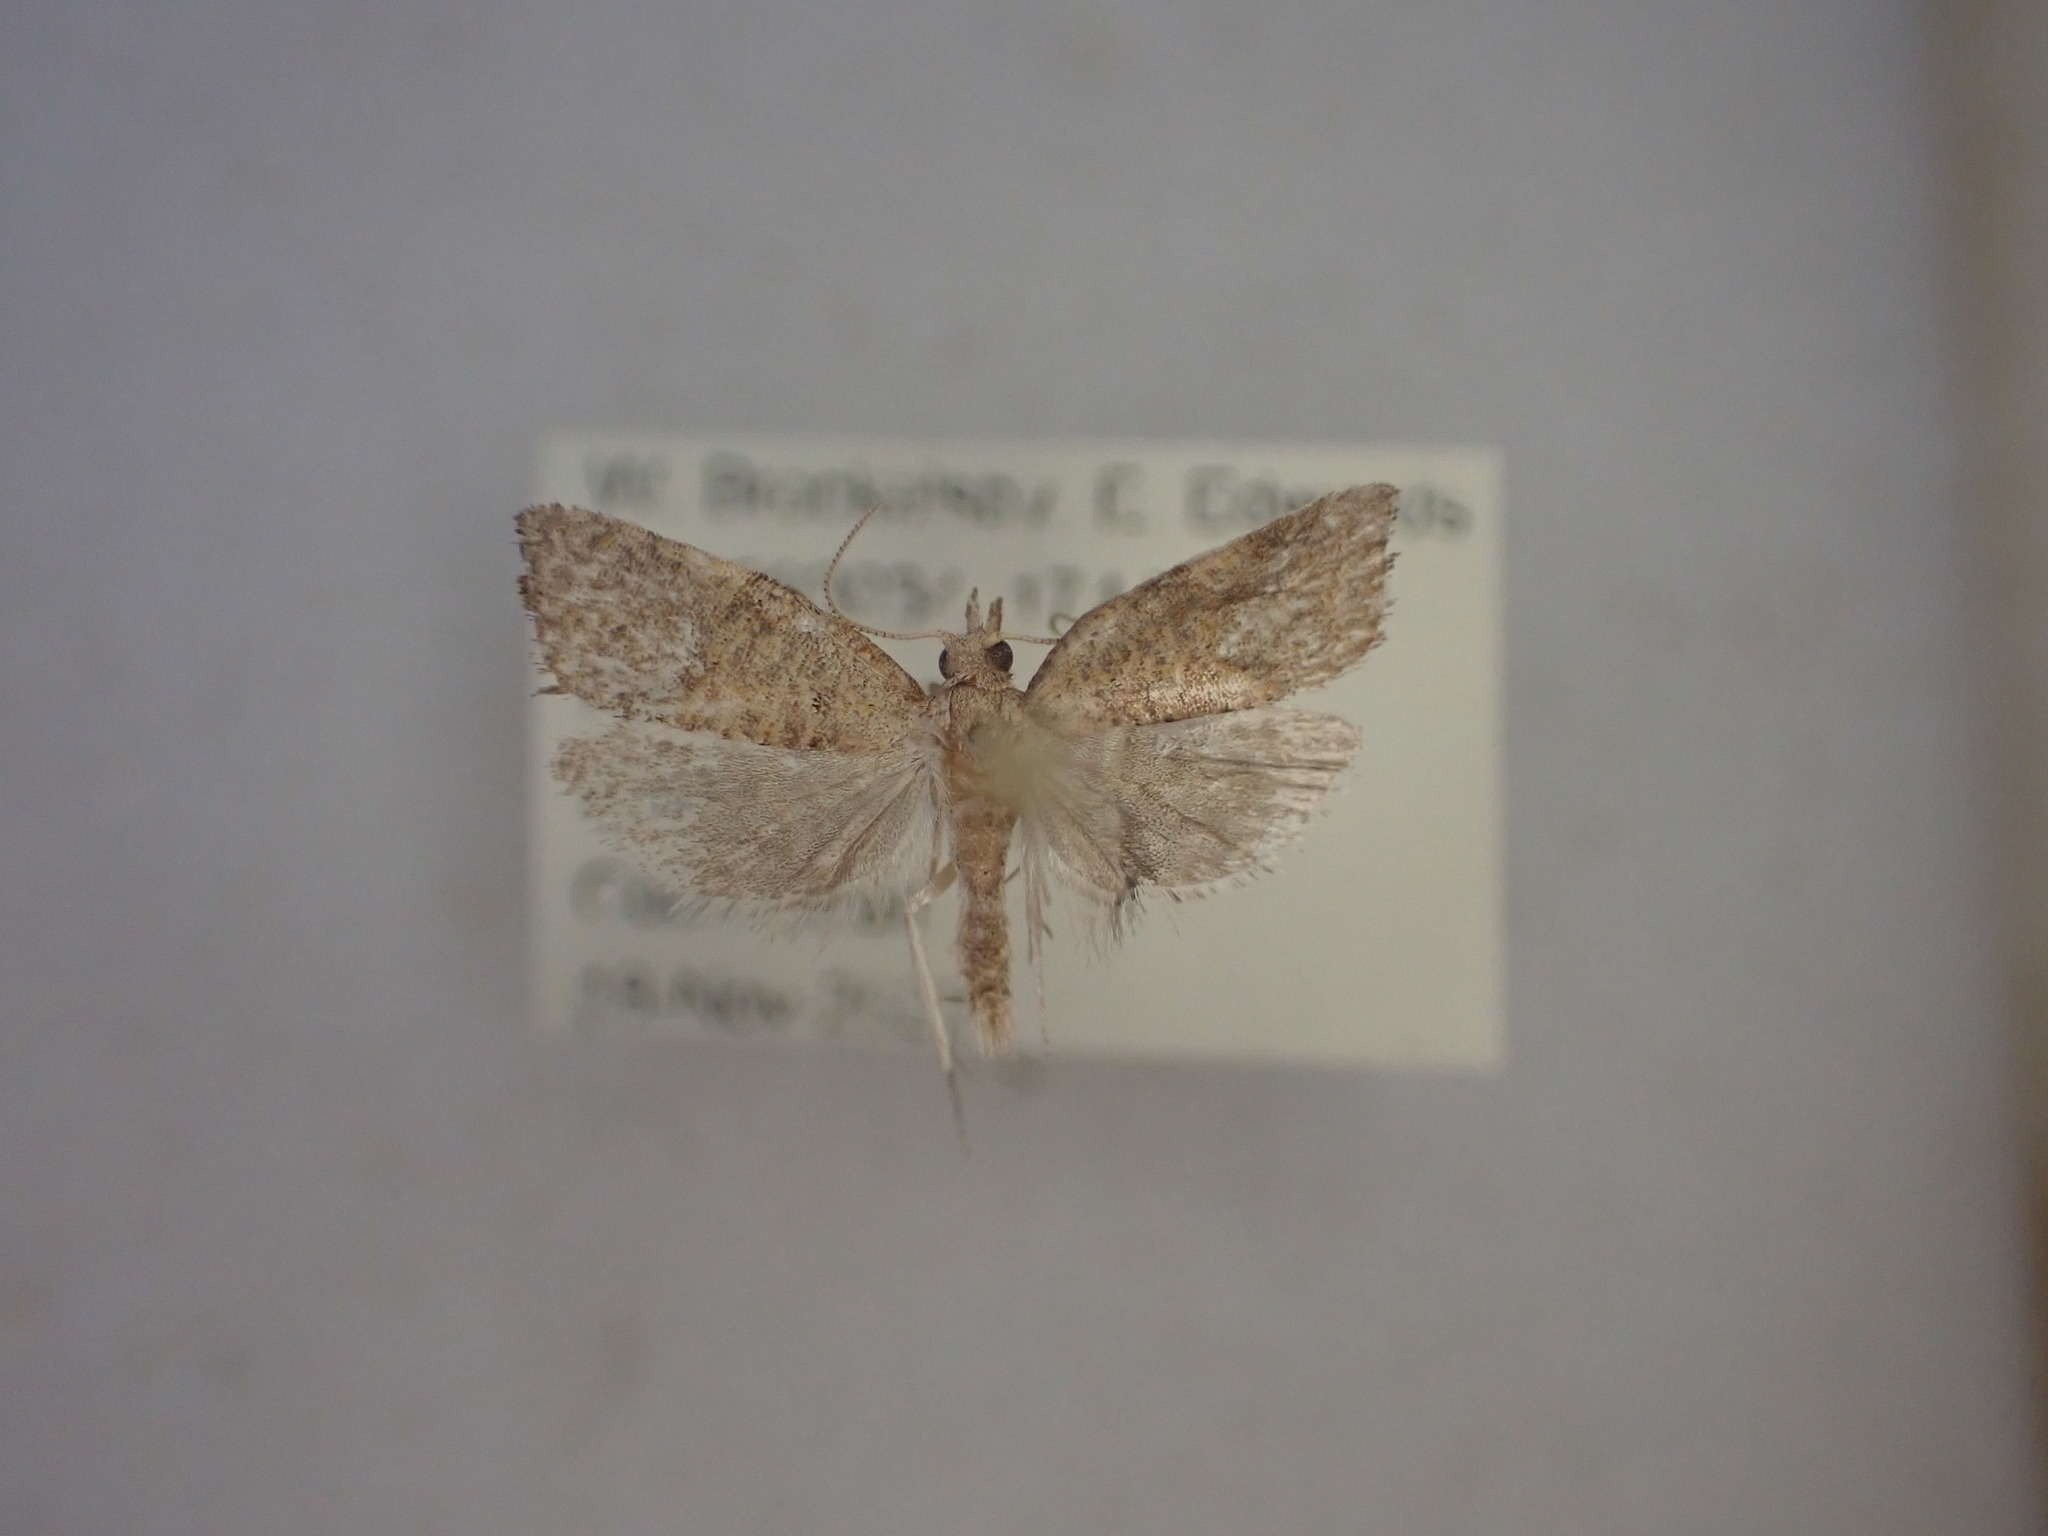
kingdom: Animalia
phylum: Arthropoda
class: Insecta
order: Lepidoptera
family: Tortricidae
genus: Catamacta
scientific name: Catamacta gavisana
